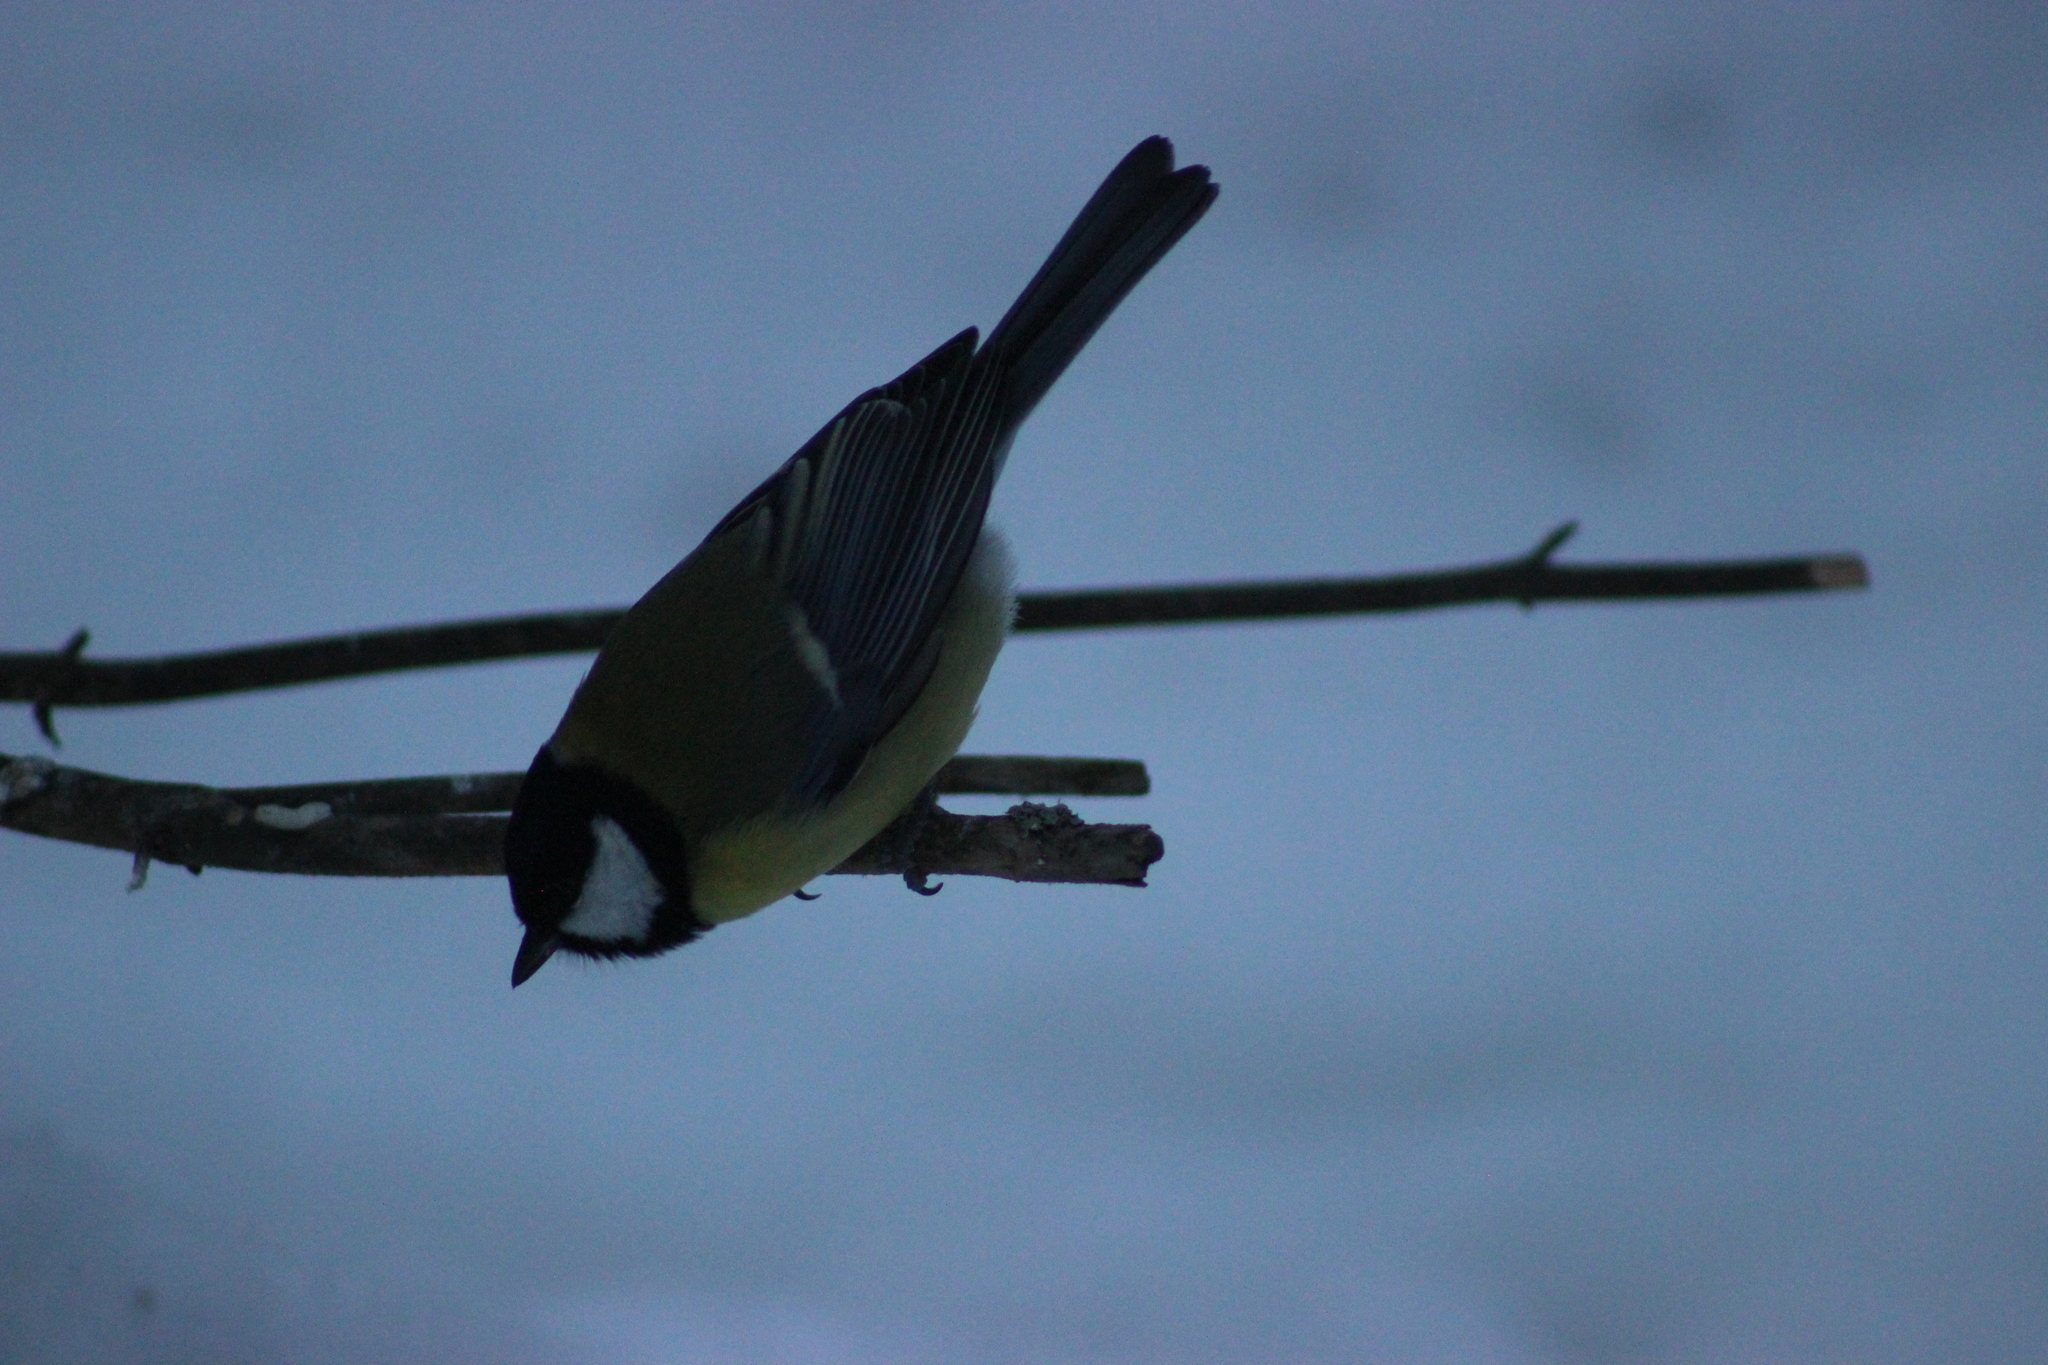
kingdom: Animalia
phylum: Chordata
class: Aves
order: Passeriformes
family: Paridae
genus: Parus
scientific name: Parus major
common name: Great tit
